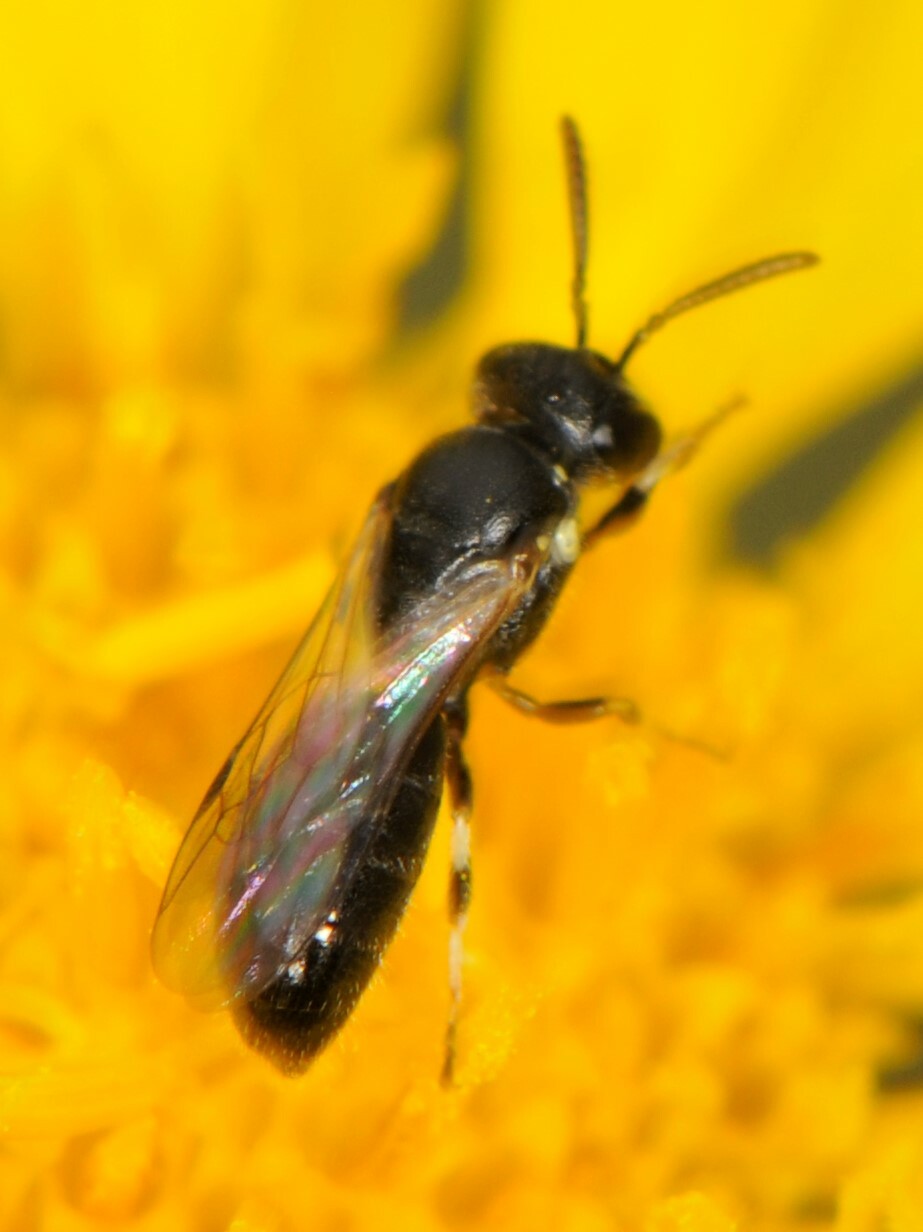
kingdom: Animalia
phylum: Arthropoda
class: Insecta
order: Hymenoptera
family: Colletidae
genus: Hylaeus
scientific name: Hylaeus
